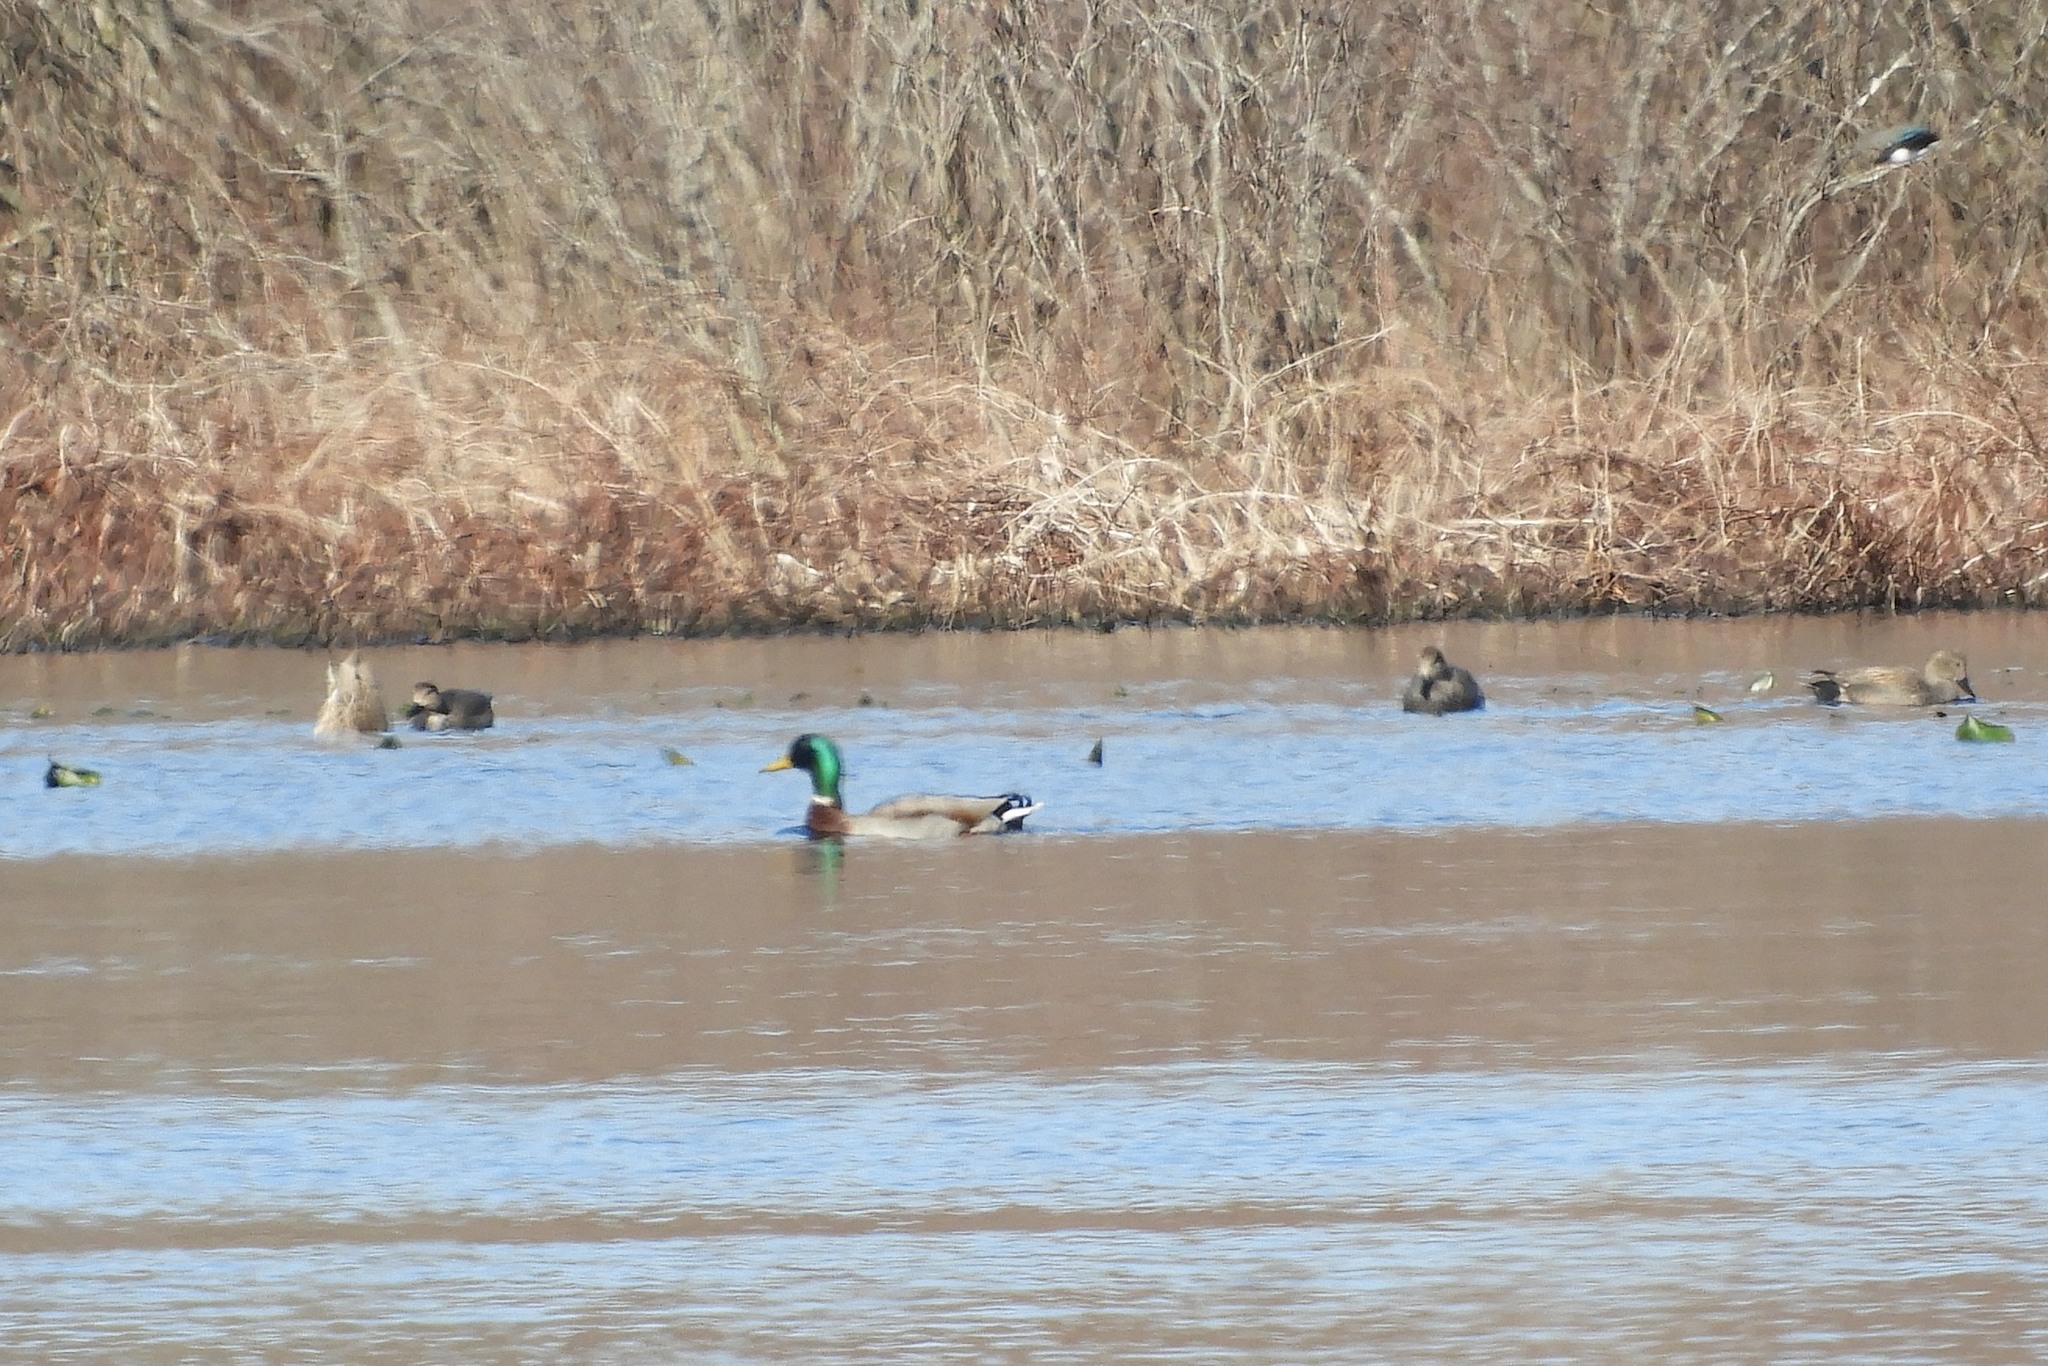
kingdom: Animalia
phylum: Chordata
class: Aves
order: Anseriformes
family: Anatidae
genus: Anas
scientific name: Anas platyrhynchos
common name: Mallard
